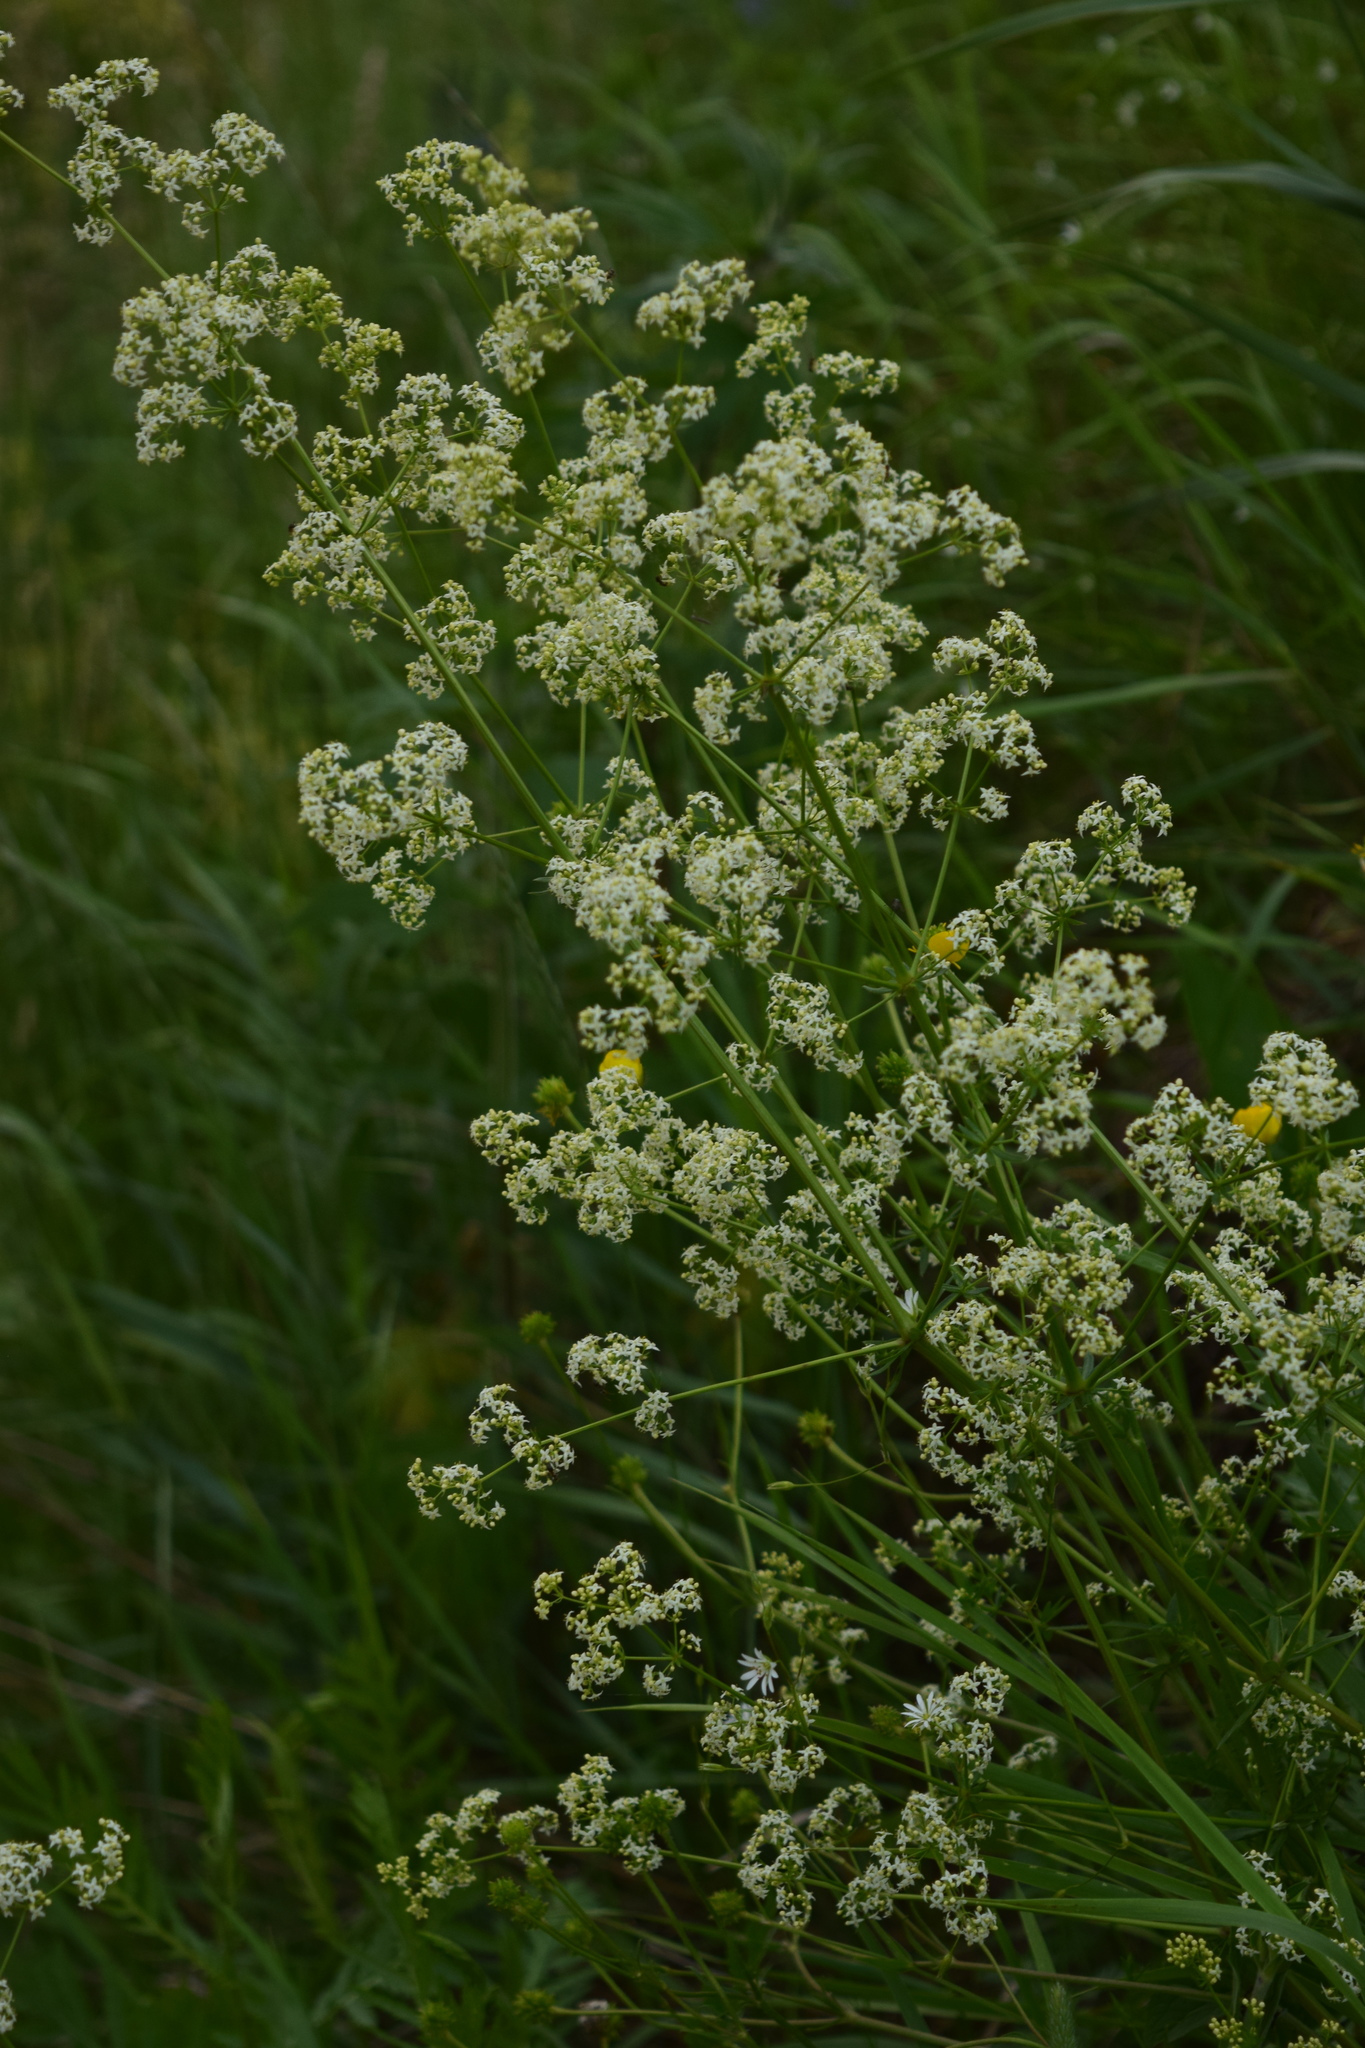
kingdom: Plantae
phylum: Tracheophyta
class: Magnoliopsida
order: Gentianales
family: Rubiaceae
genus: Galium
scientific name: Galium mollugo
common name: Hedge bedstraw
